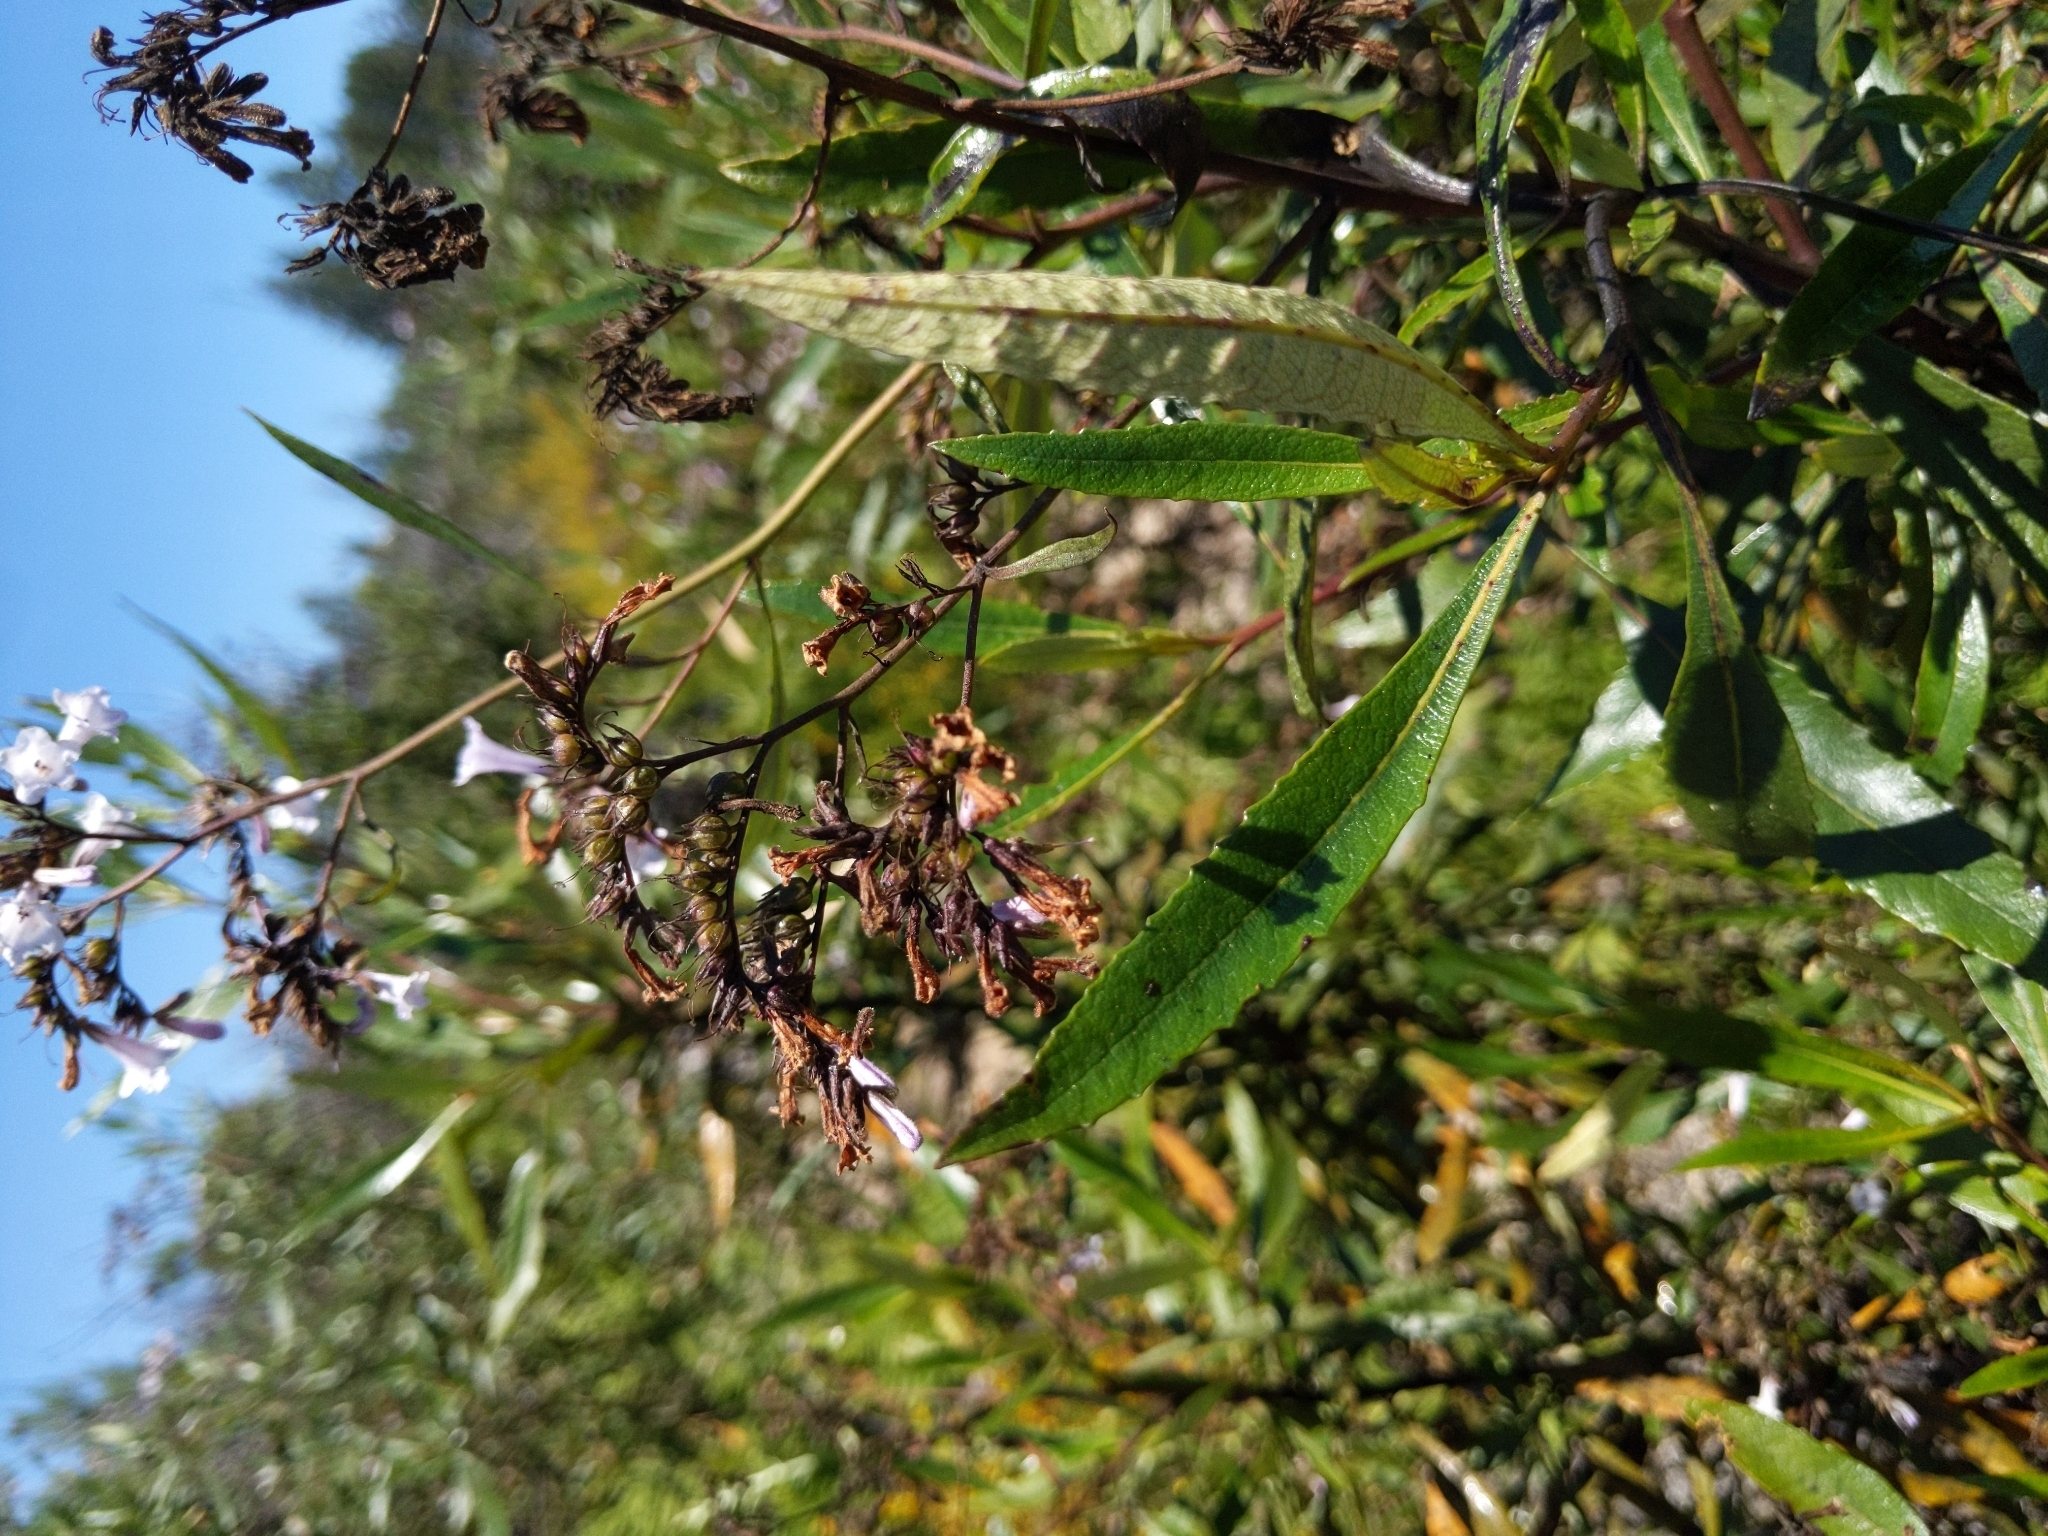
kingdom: Plantae
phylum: Tracheophyta
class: Magnoliopsida
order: Boraginales
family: Namaceae
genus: Eriodictyon
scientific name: Eriodictyon californicum
